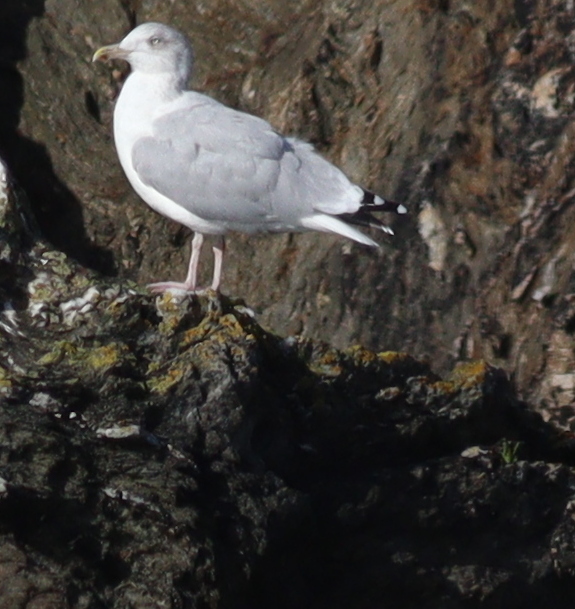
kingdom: Animalia
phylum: Chordata
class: Aves
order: Charadriiformes
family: Laridae
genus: Larus
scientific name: Larus argentatus
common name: Herring gull
